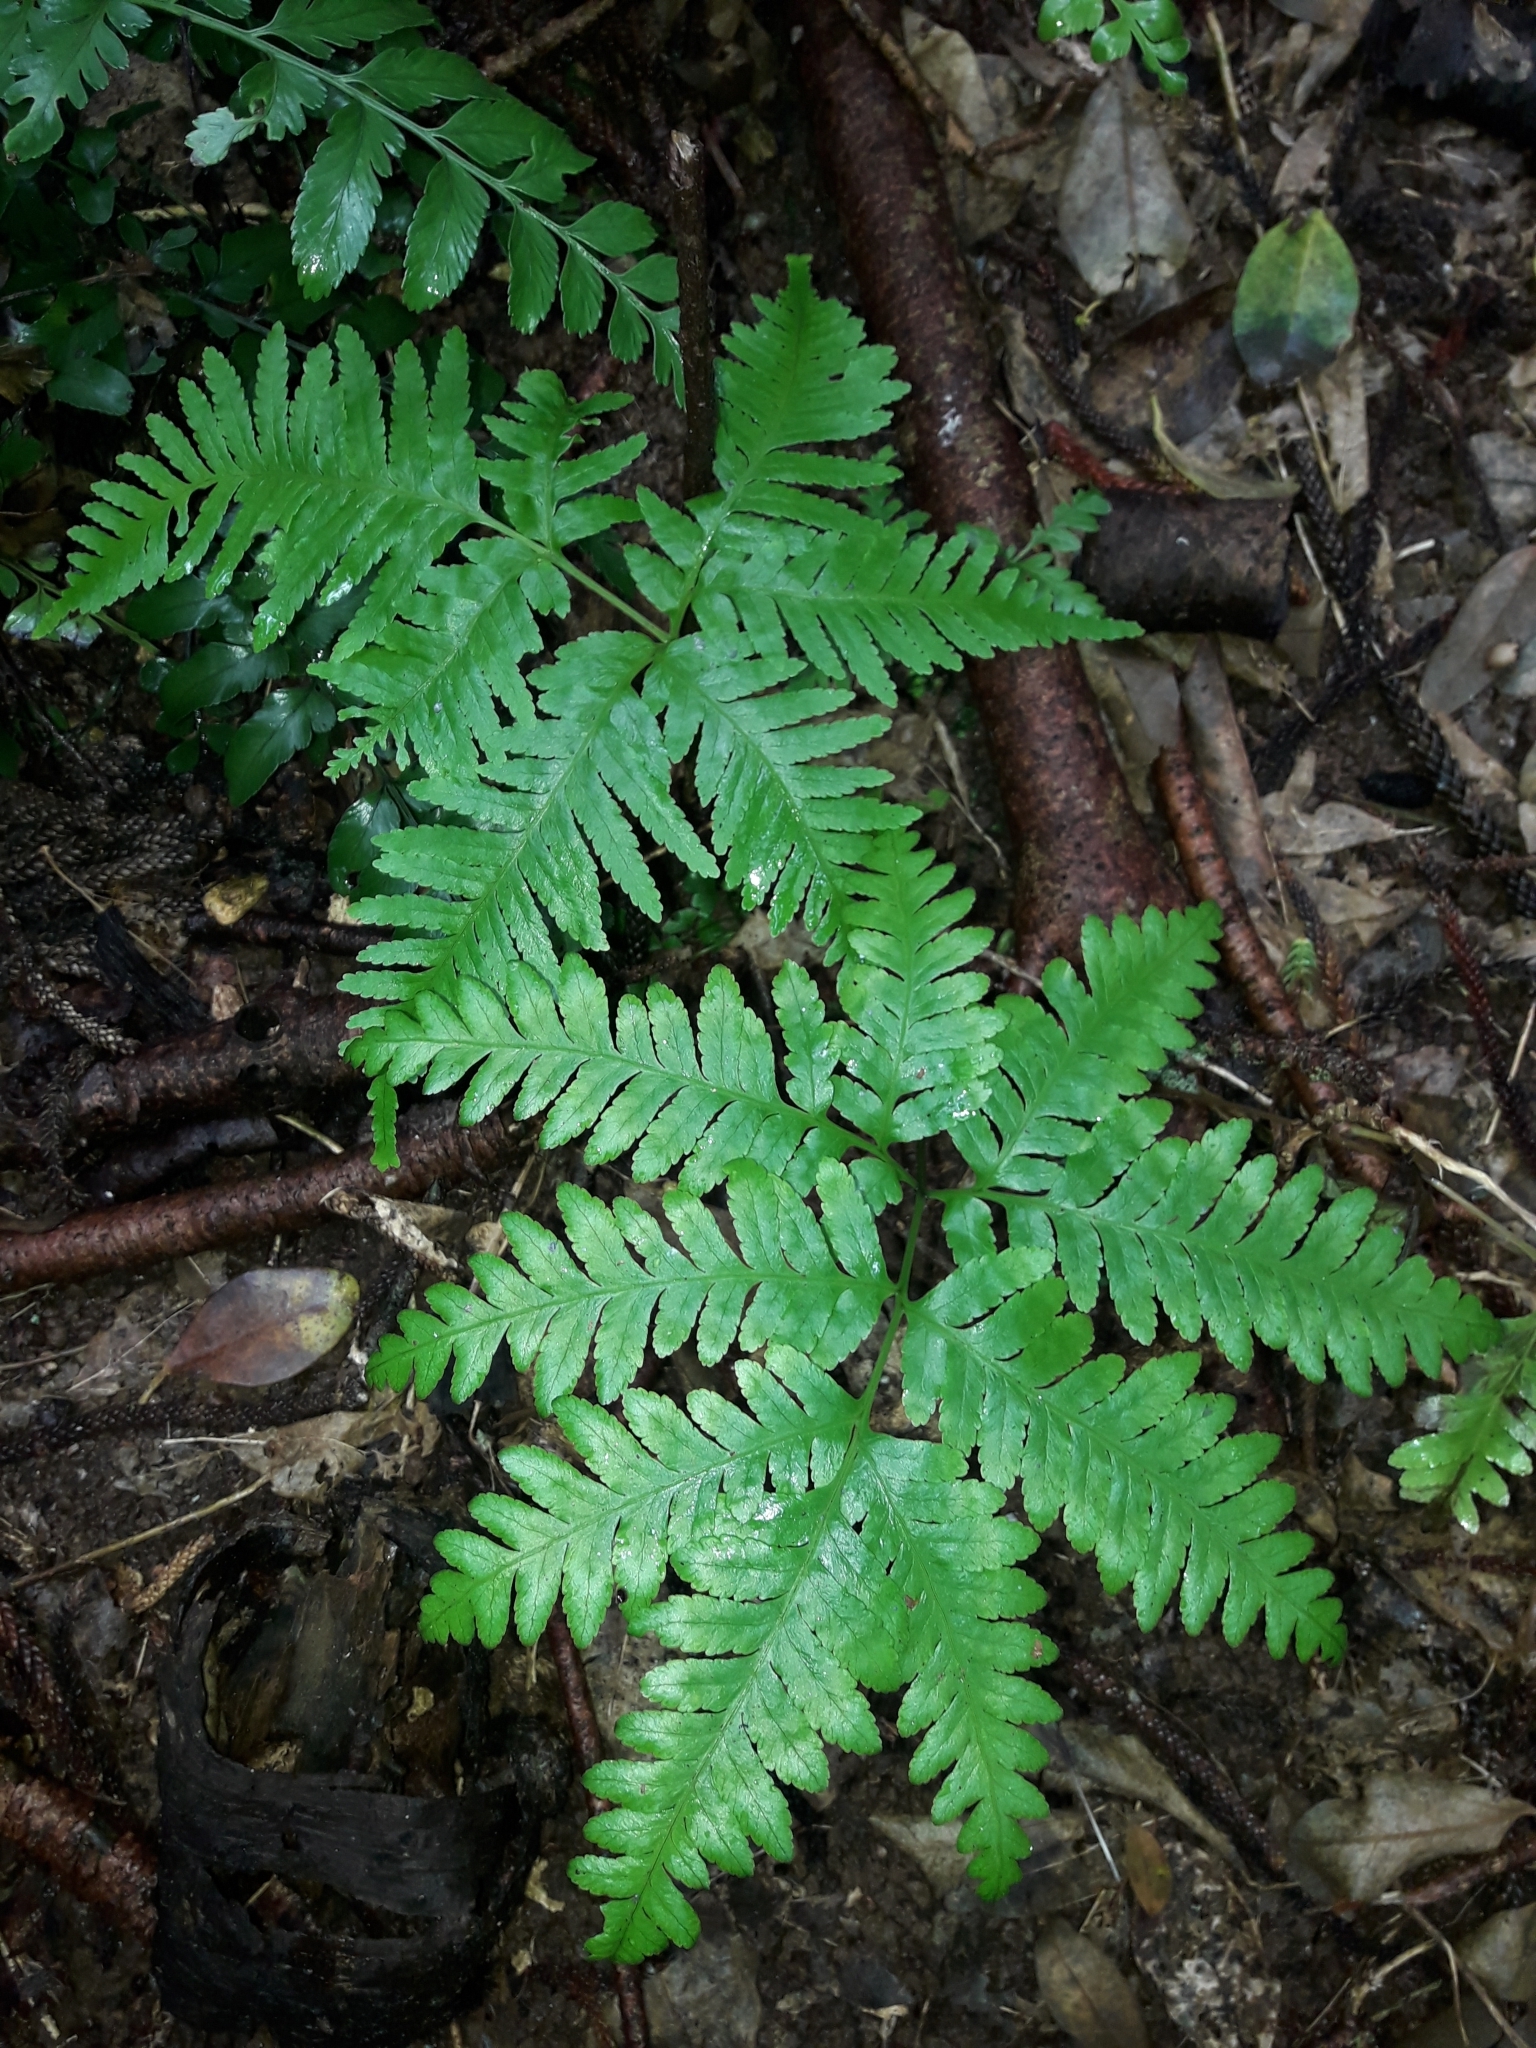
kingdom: Plantae
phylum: Tracheophyta
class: Polypodiopsida
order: Polypodiales
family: Pteridaceae
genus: Pteris
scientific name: Pteris kingiana
